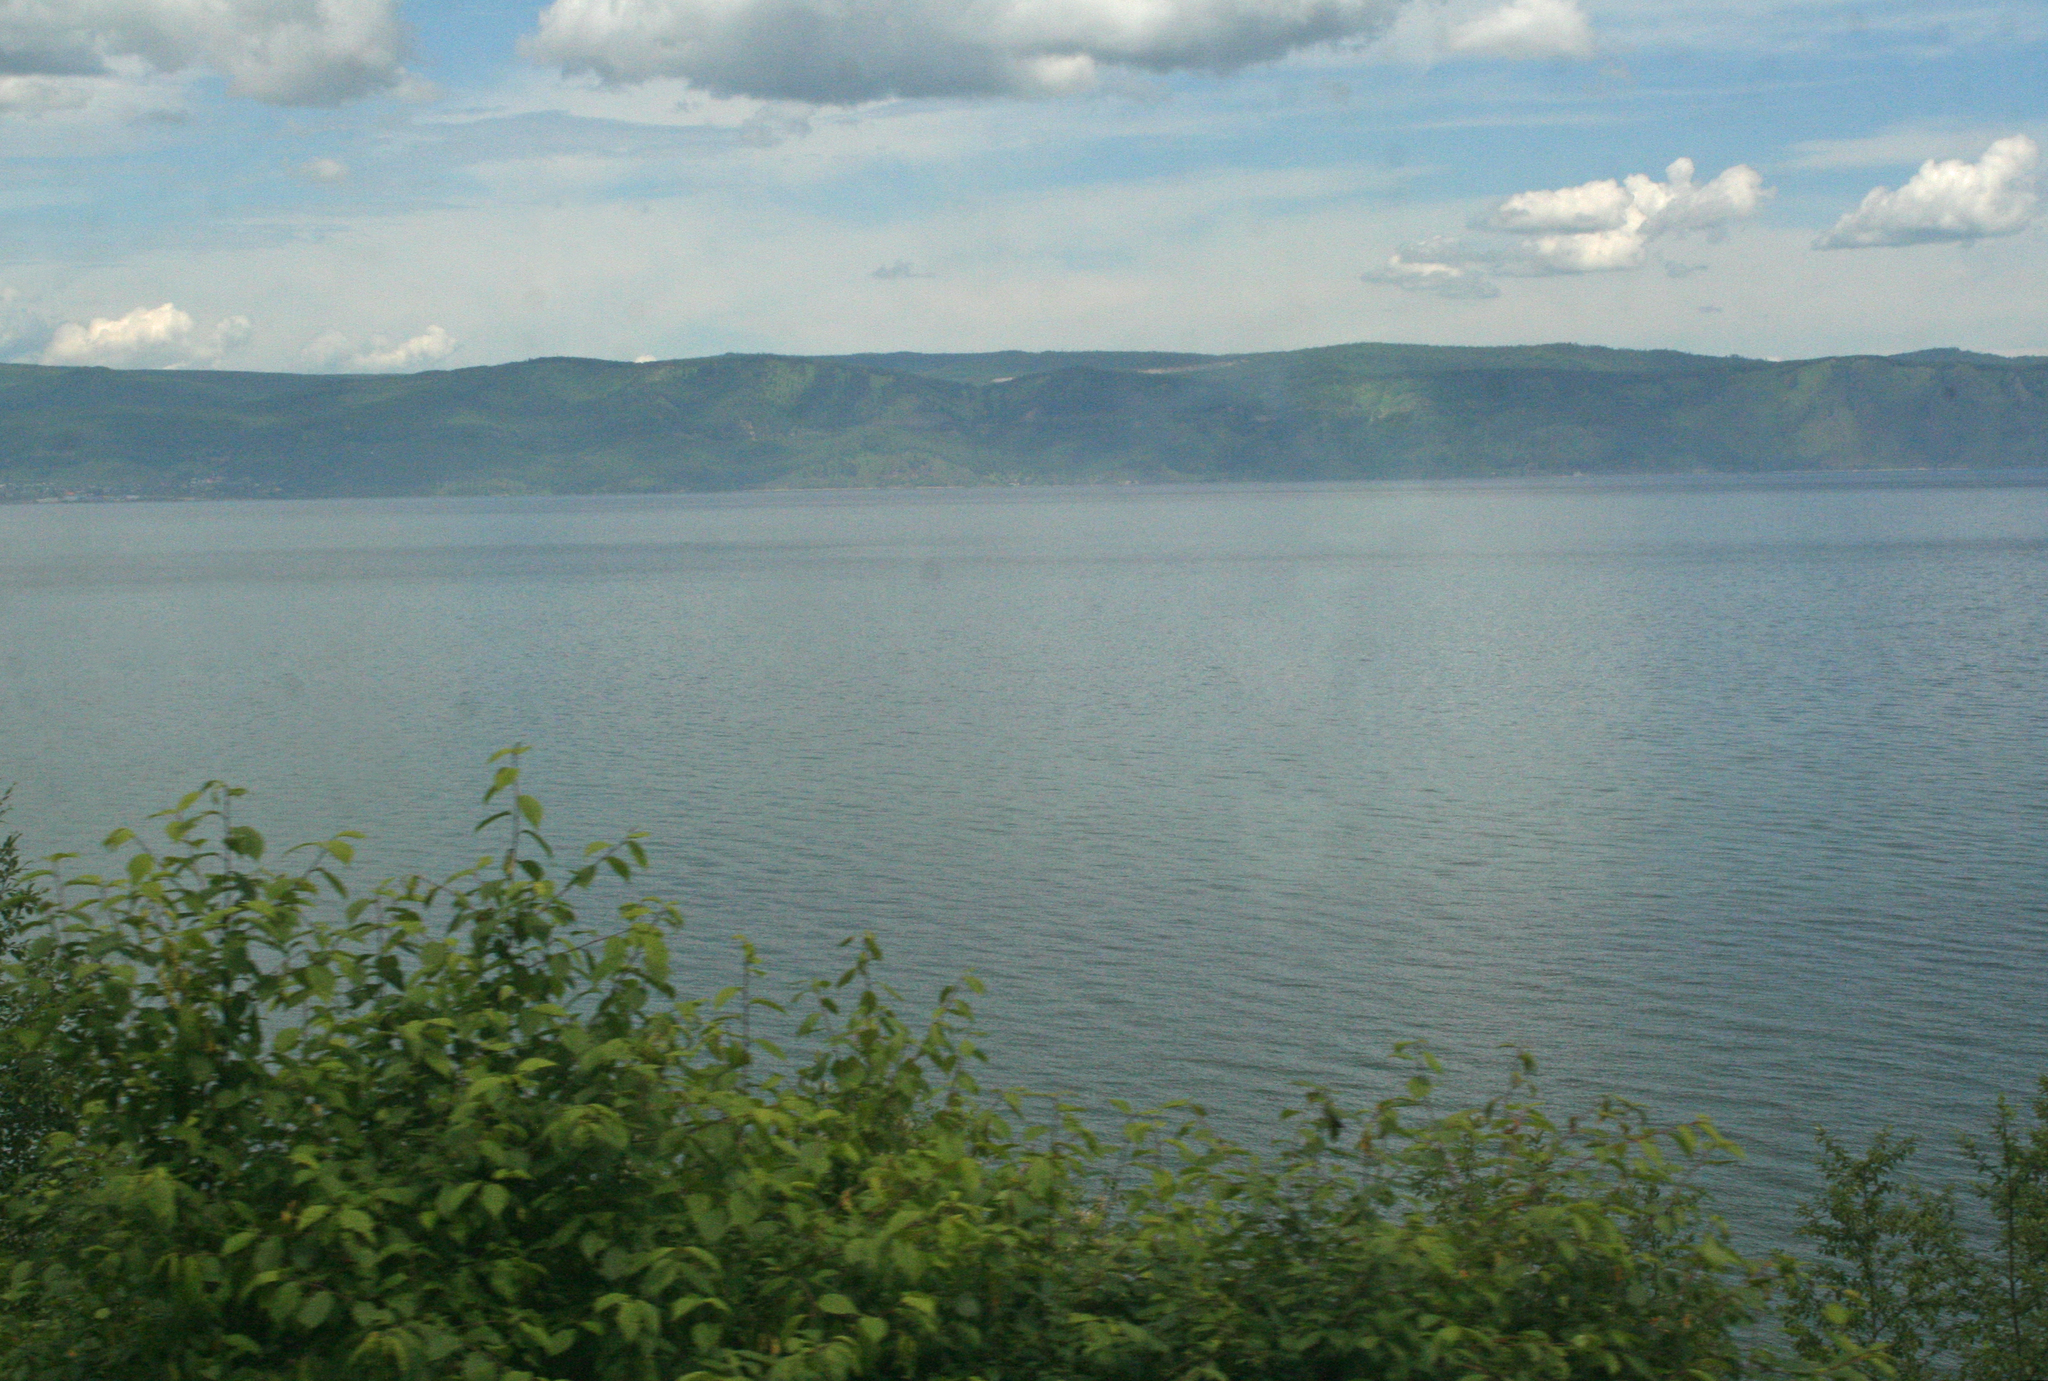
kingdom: Plantae
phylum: Tracheophyta
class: Magnoliopsida
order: Rosales
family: Rosaceae
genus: Prunus
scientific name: Prunus padus
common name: Bird cherry
